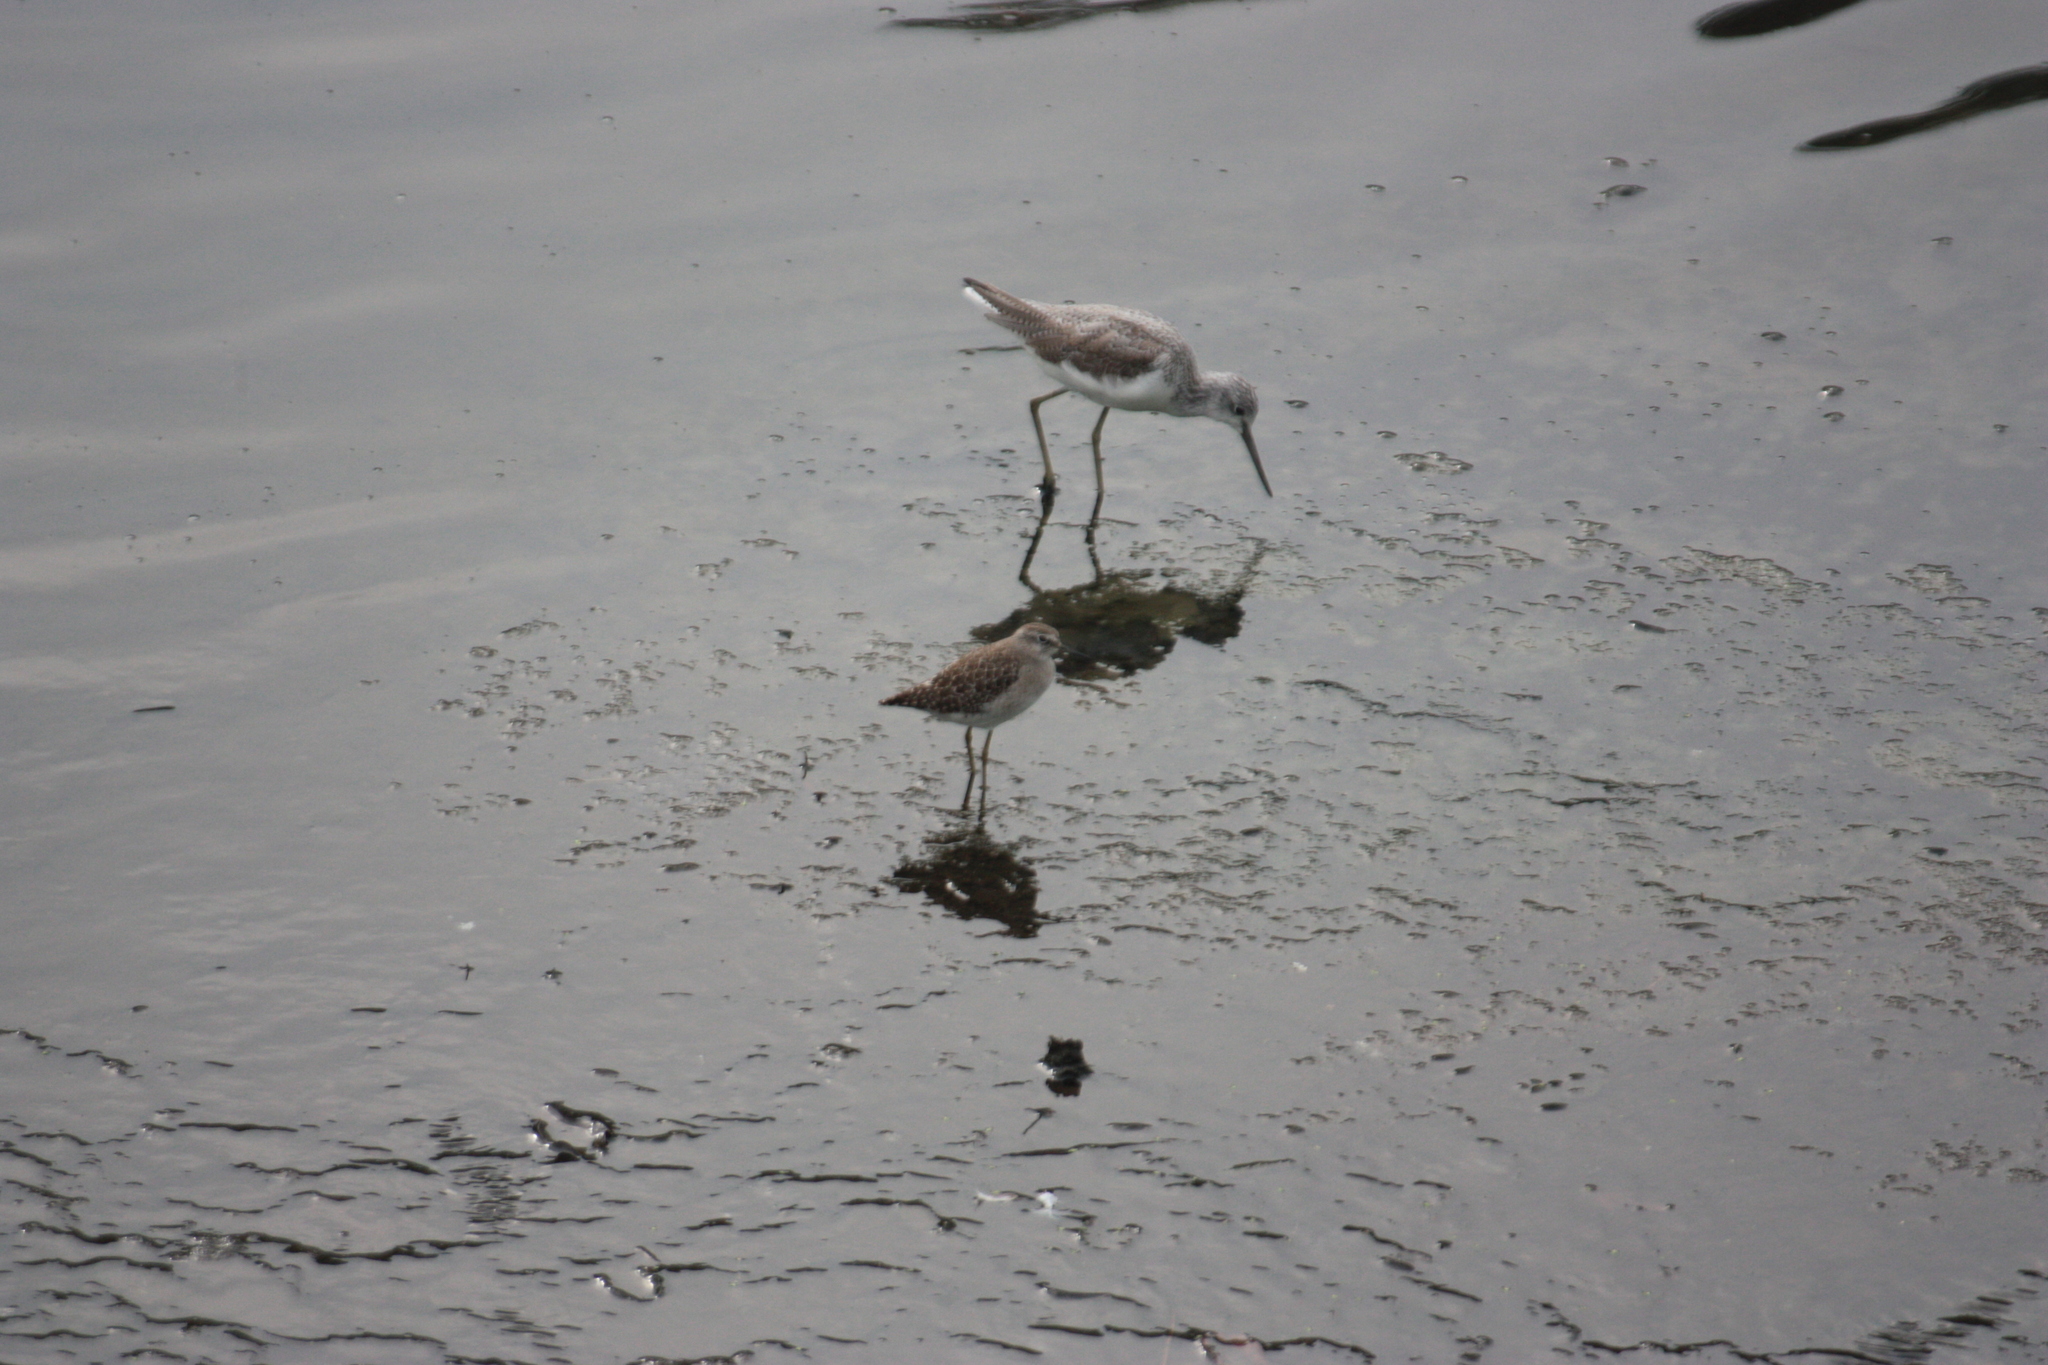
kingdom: Animalia
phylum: Chordata
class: Aves
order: Charadriiformes
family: Scolopacidae
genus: Tringa
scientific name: Tringa glareola
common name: Wood sandpiper
